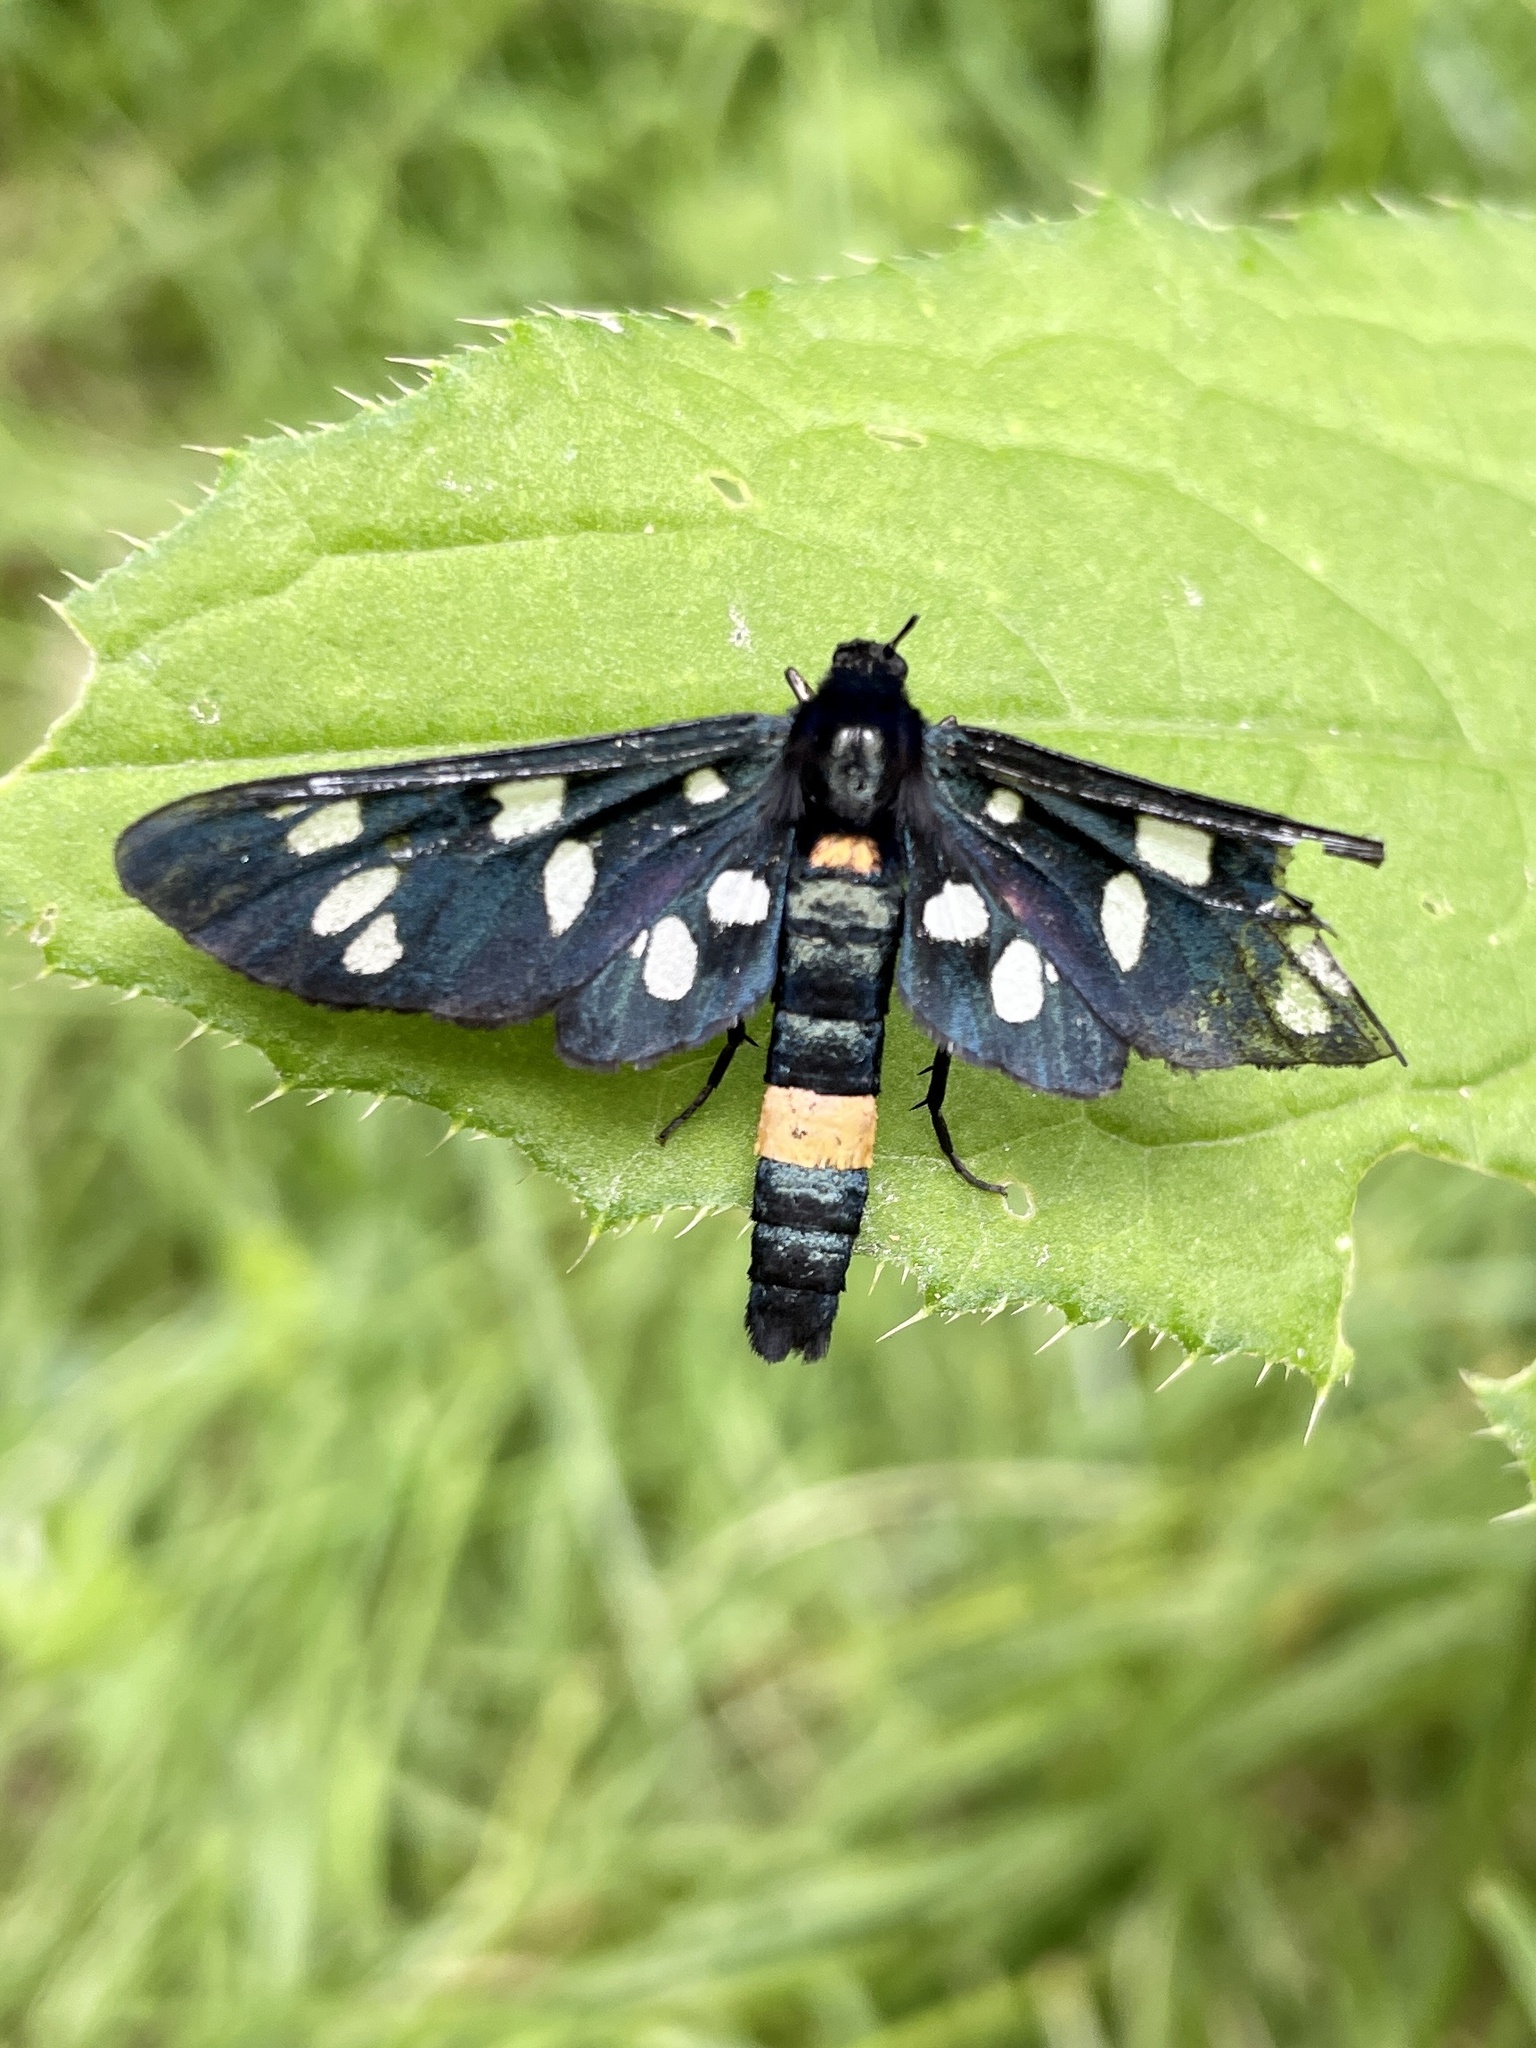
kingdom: Animalia
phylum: Arthropoda
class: Insecta
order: Lepidoptera
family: Erebidae
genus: Amata
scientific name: Amata phegea
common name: Nine-spotted
